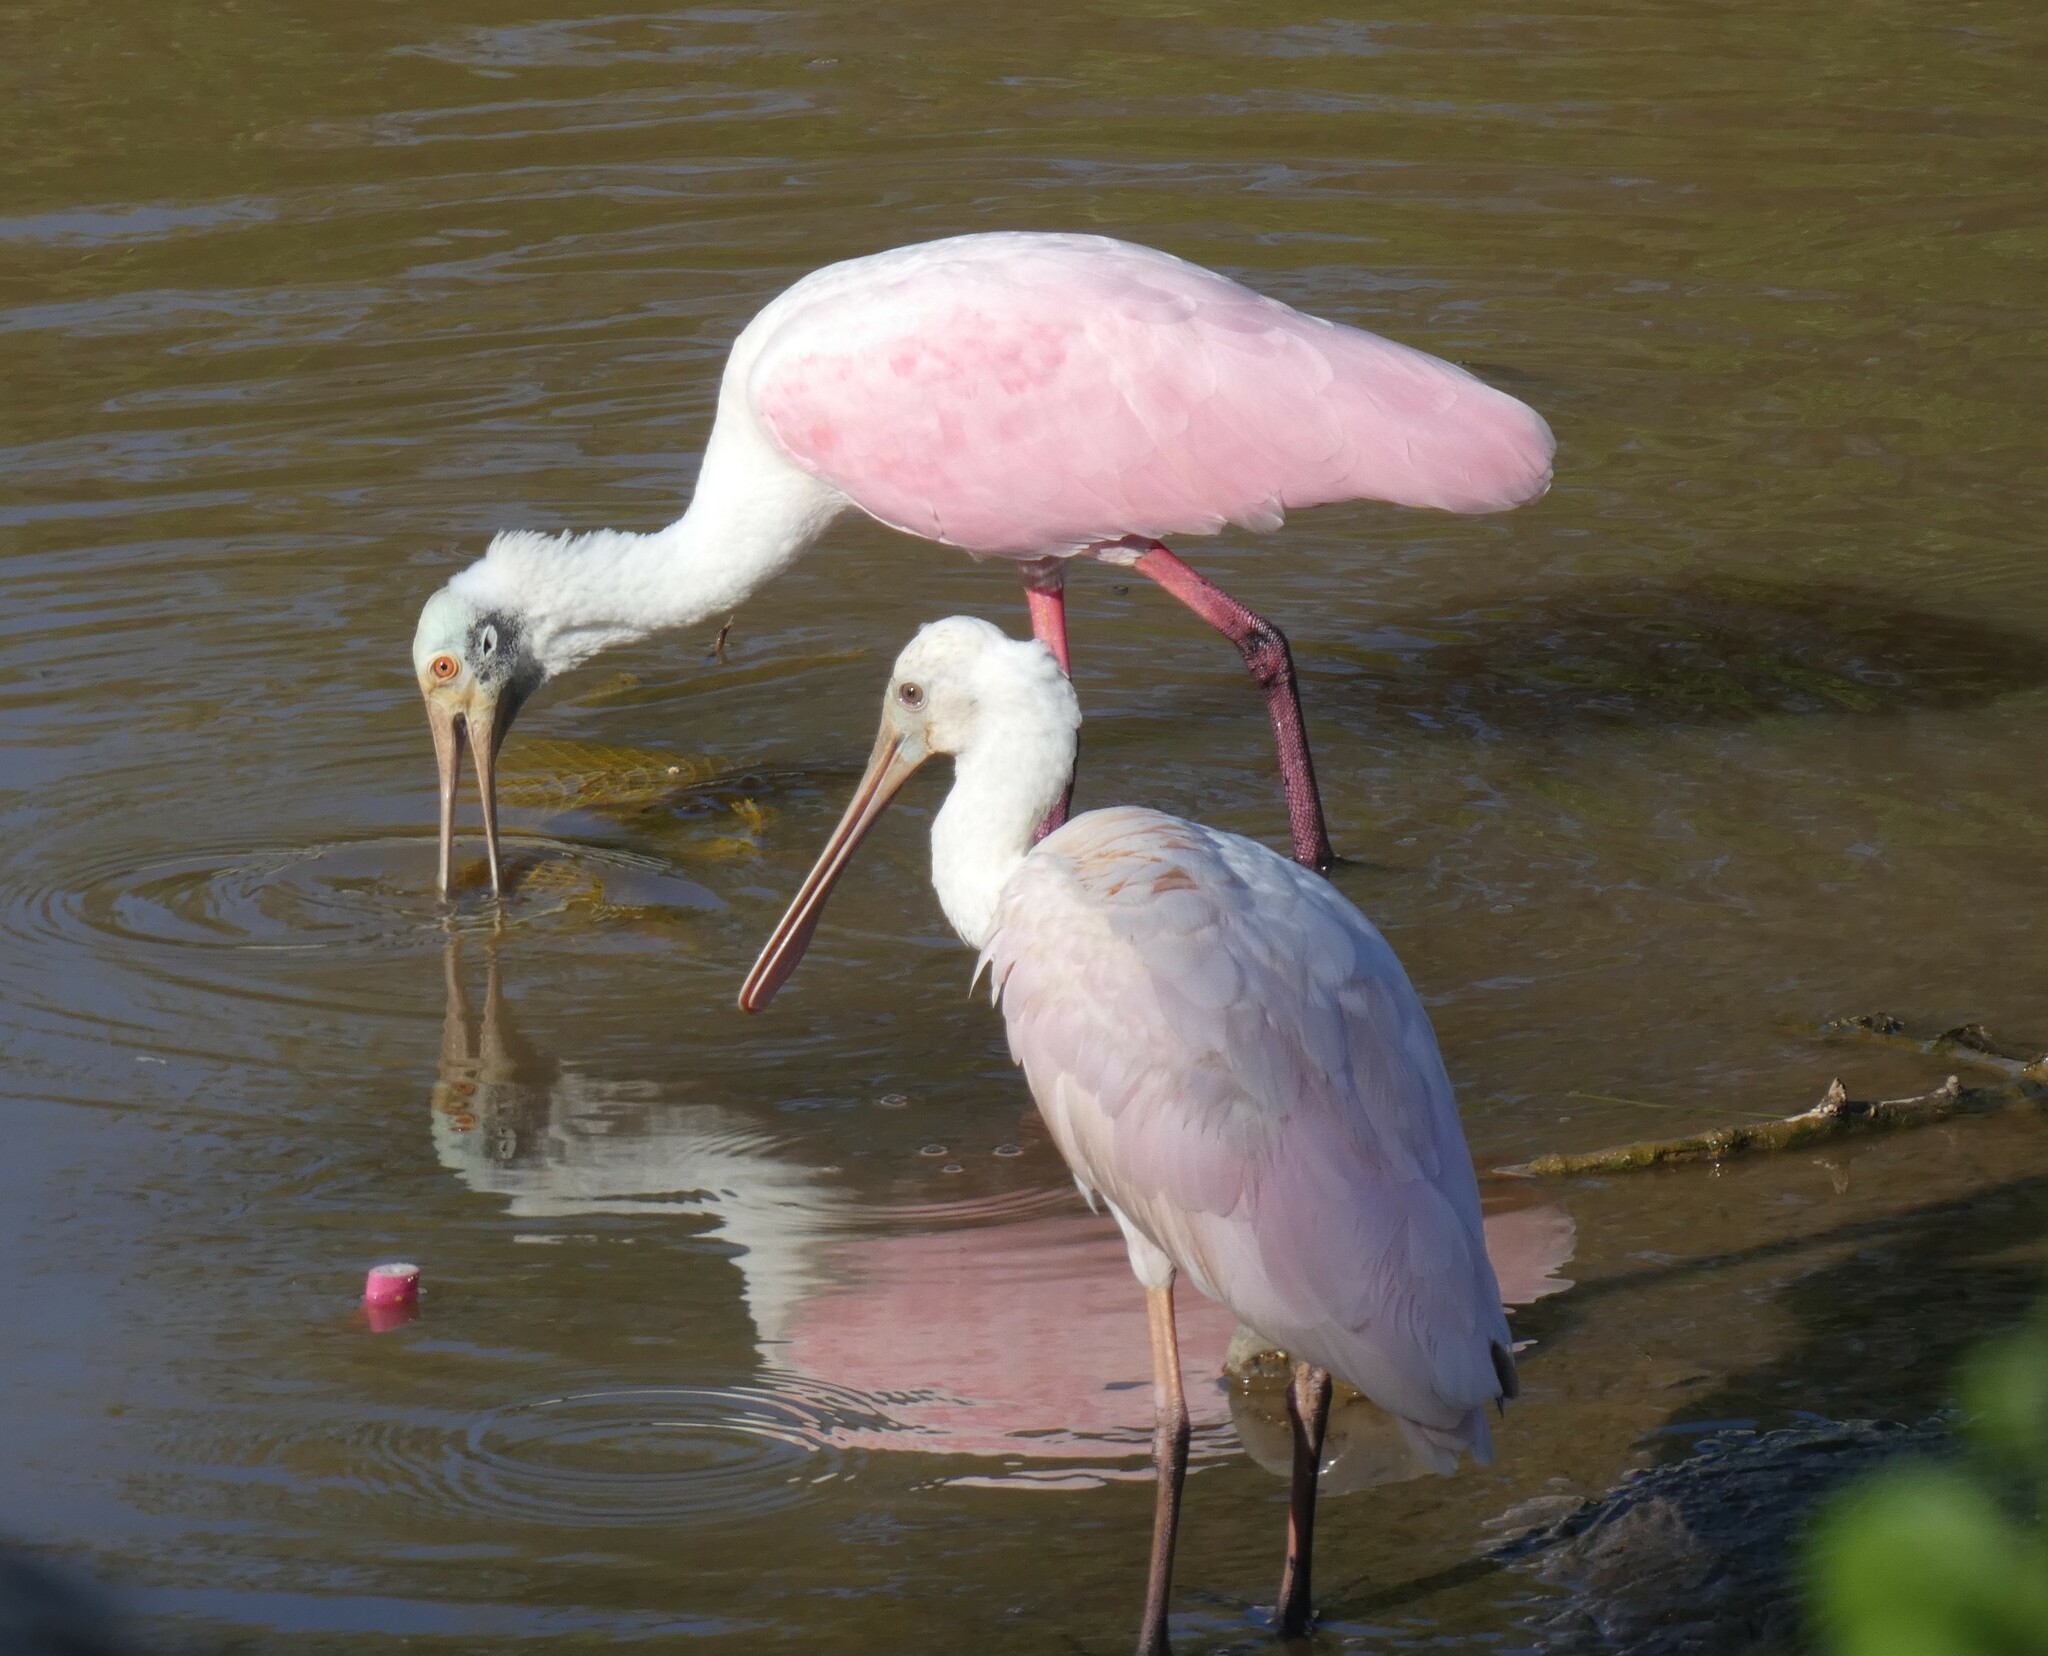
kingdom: Animalia
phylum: Chordata
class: Aves
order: Pelecaniformes
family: Threskiornithidae
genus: Platalea
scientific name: Platalea ajaja
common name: Roseate spoonbill
